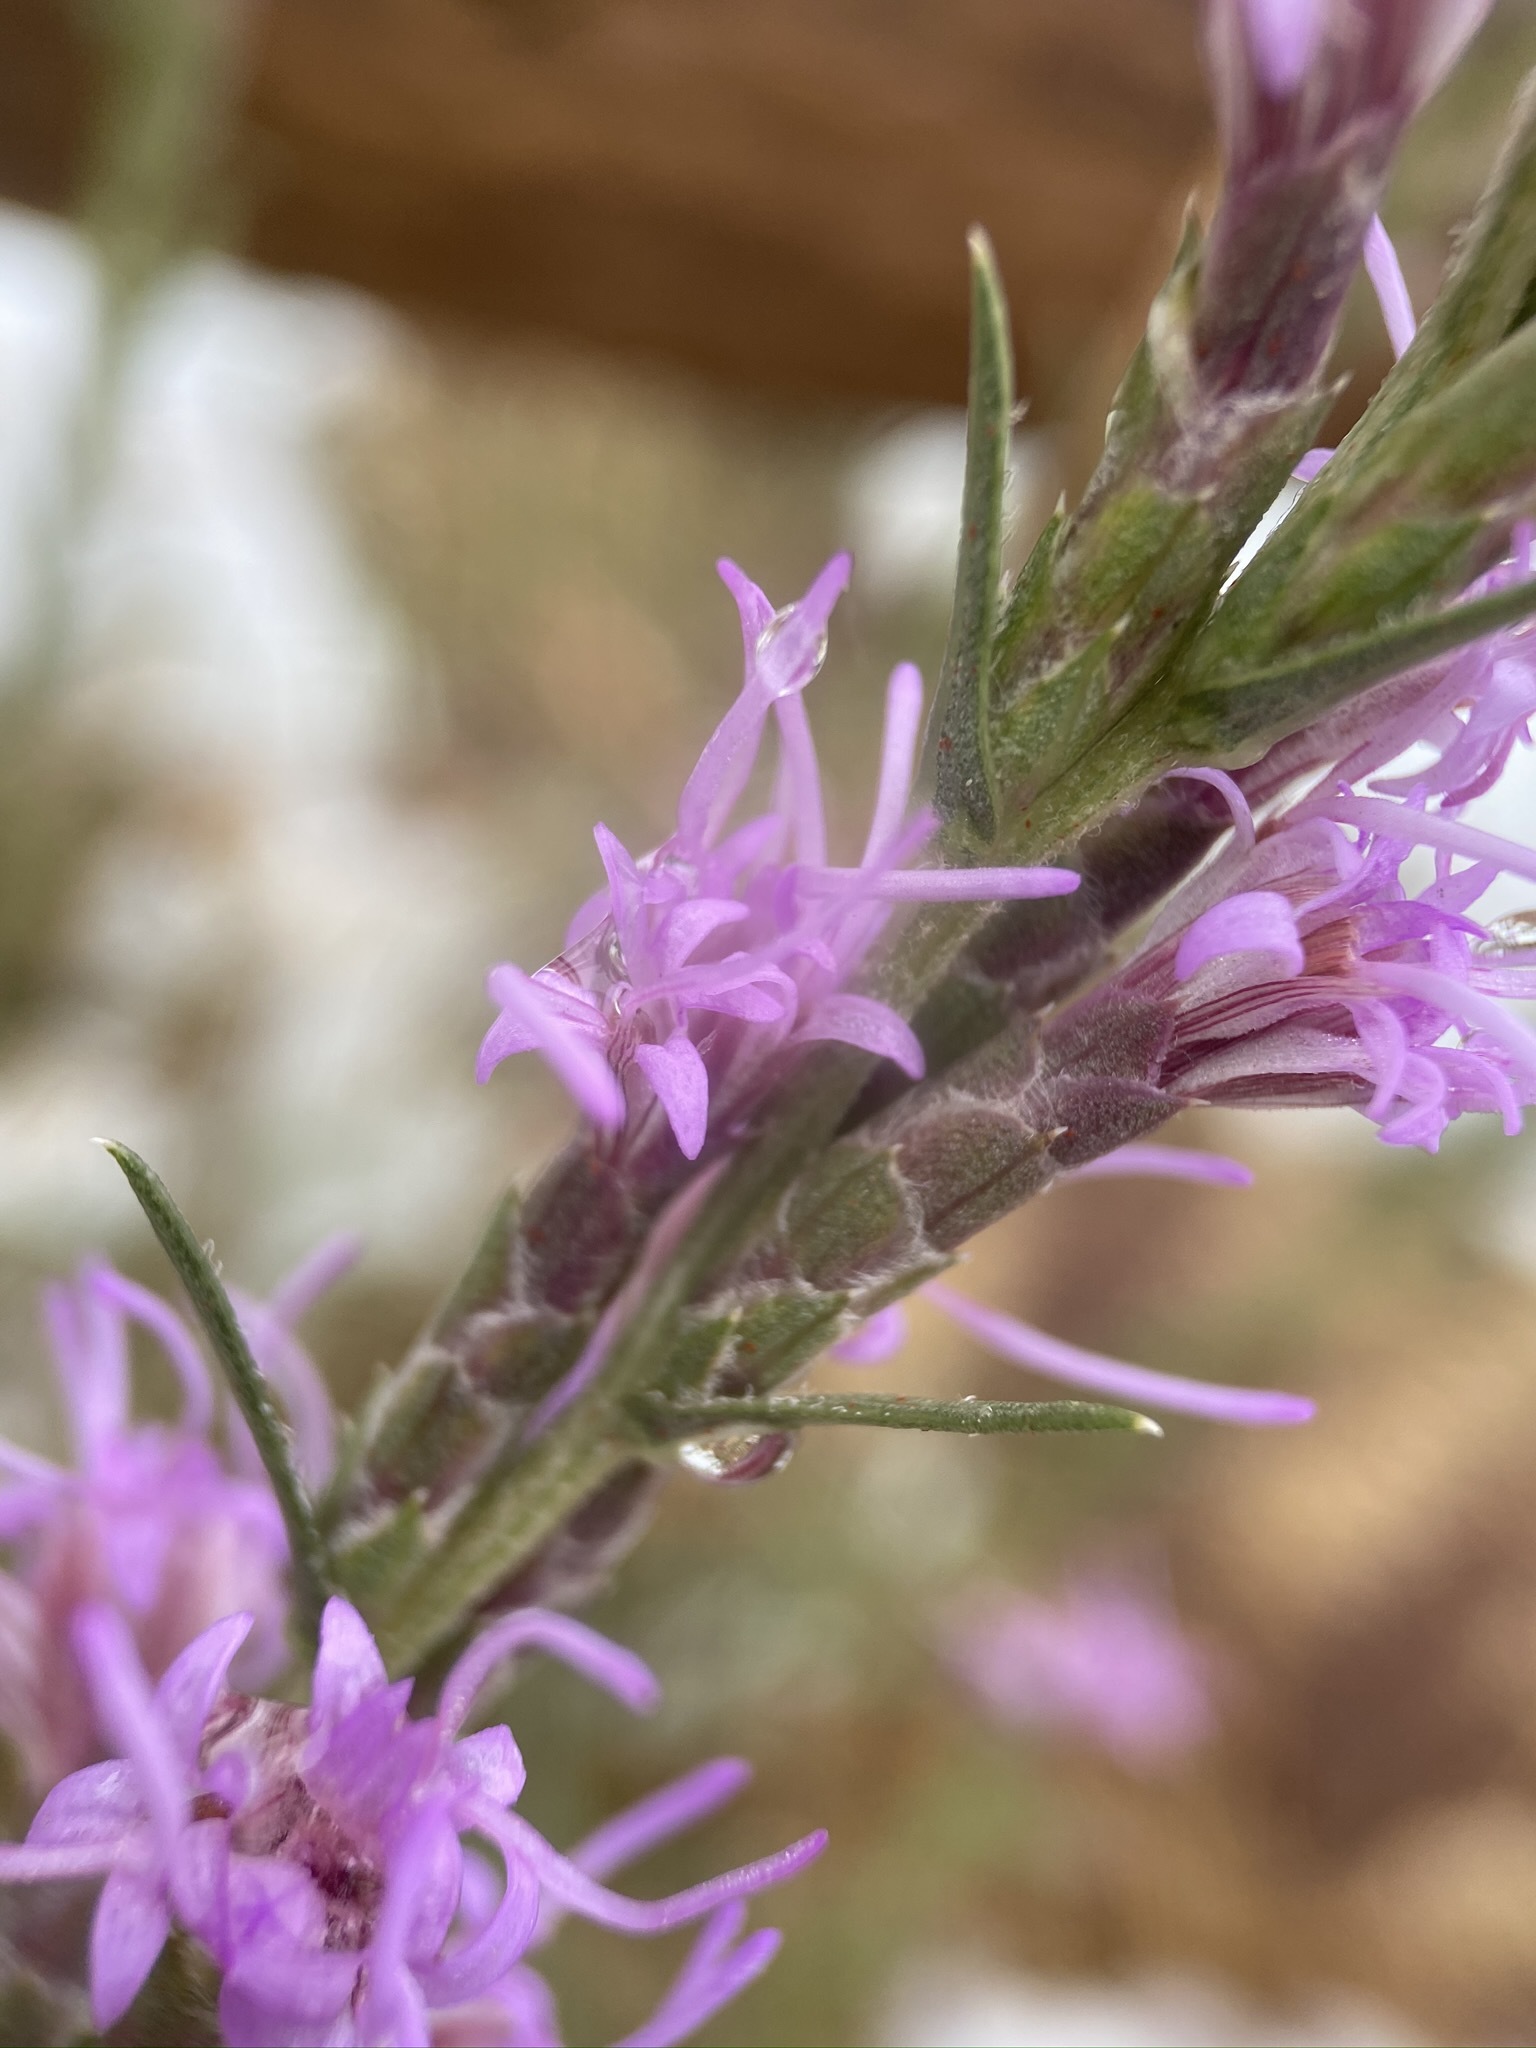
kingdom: Plantae
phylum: Tracheophyta
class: Magnoliopsida
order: Asterales
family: Asteraceae
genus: Liatris
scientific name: Liatris punctata
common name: Dotted gayfeather
